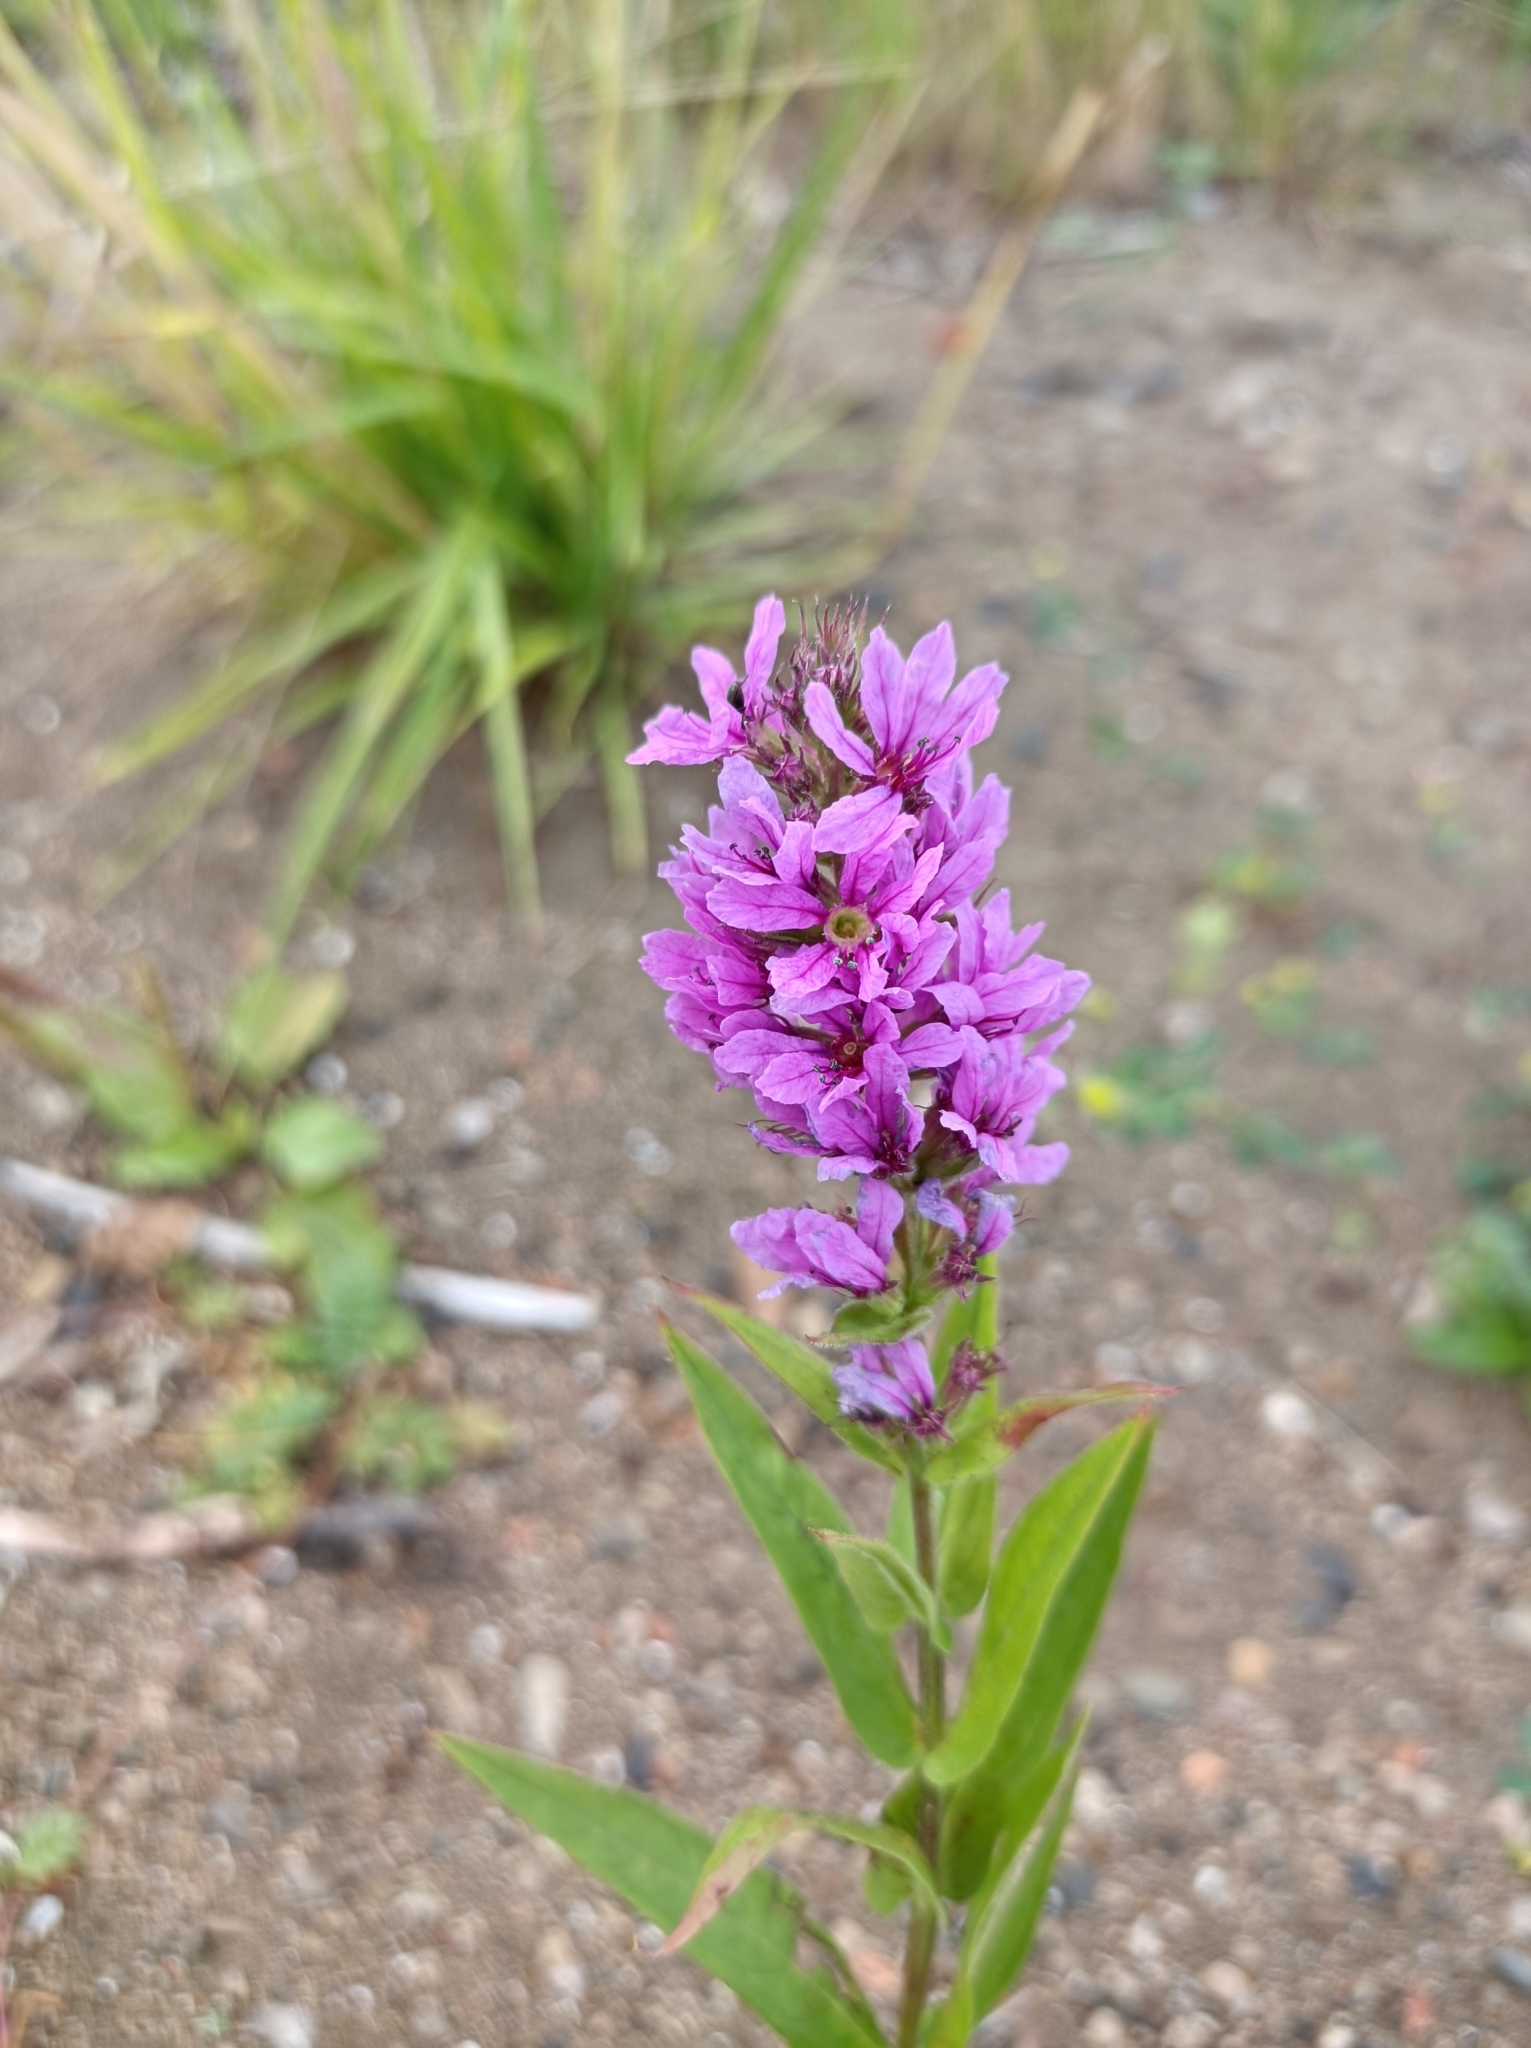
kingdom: Plantae
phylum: Tracheophyta
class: Magnoliopsida
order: Myrtales
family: Lythraceae
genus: Lythrum
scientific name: Lythrum salicaria
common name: Purple loosestrife
